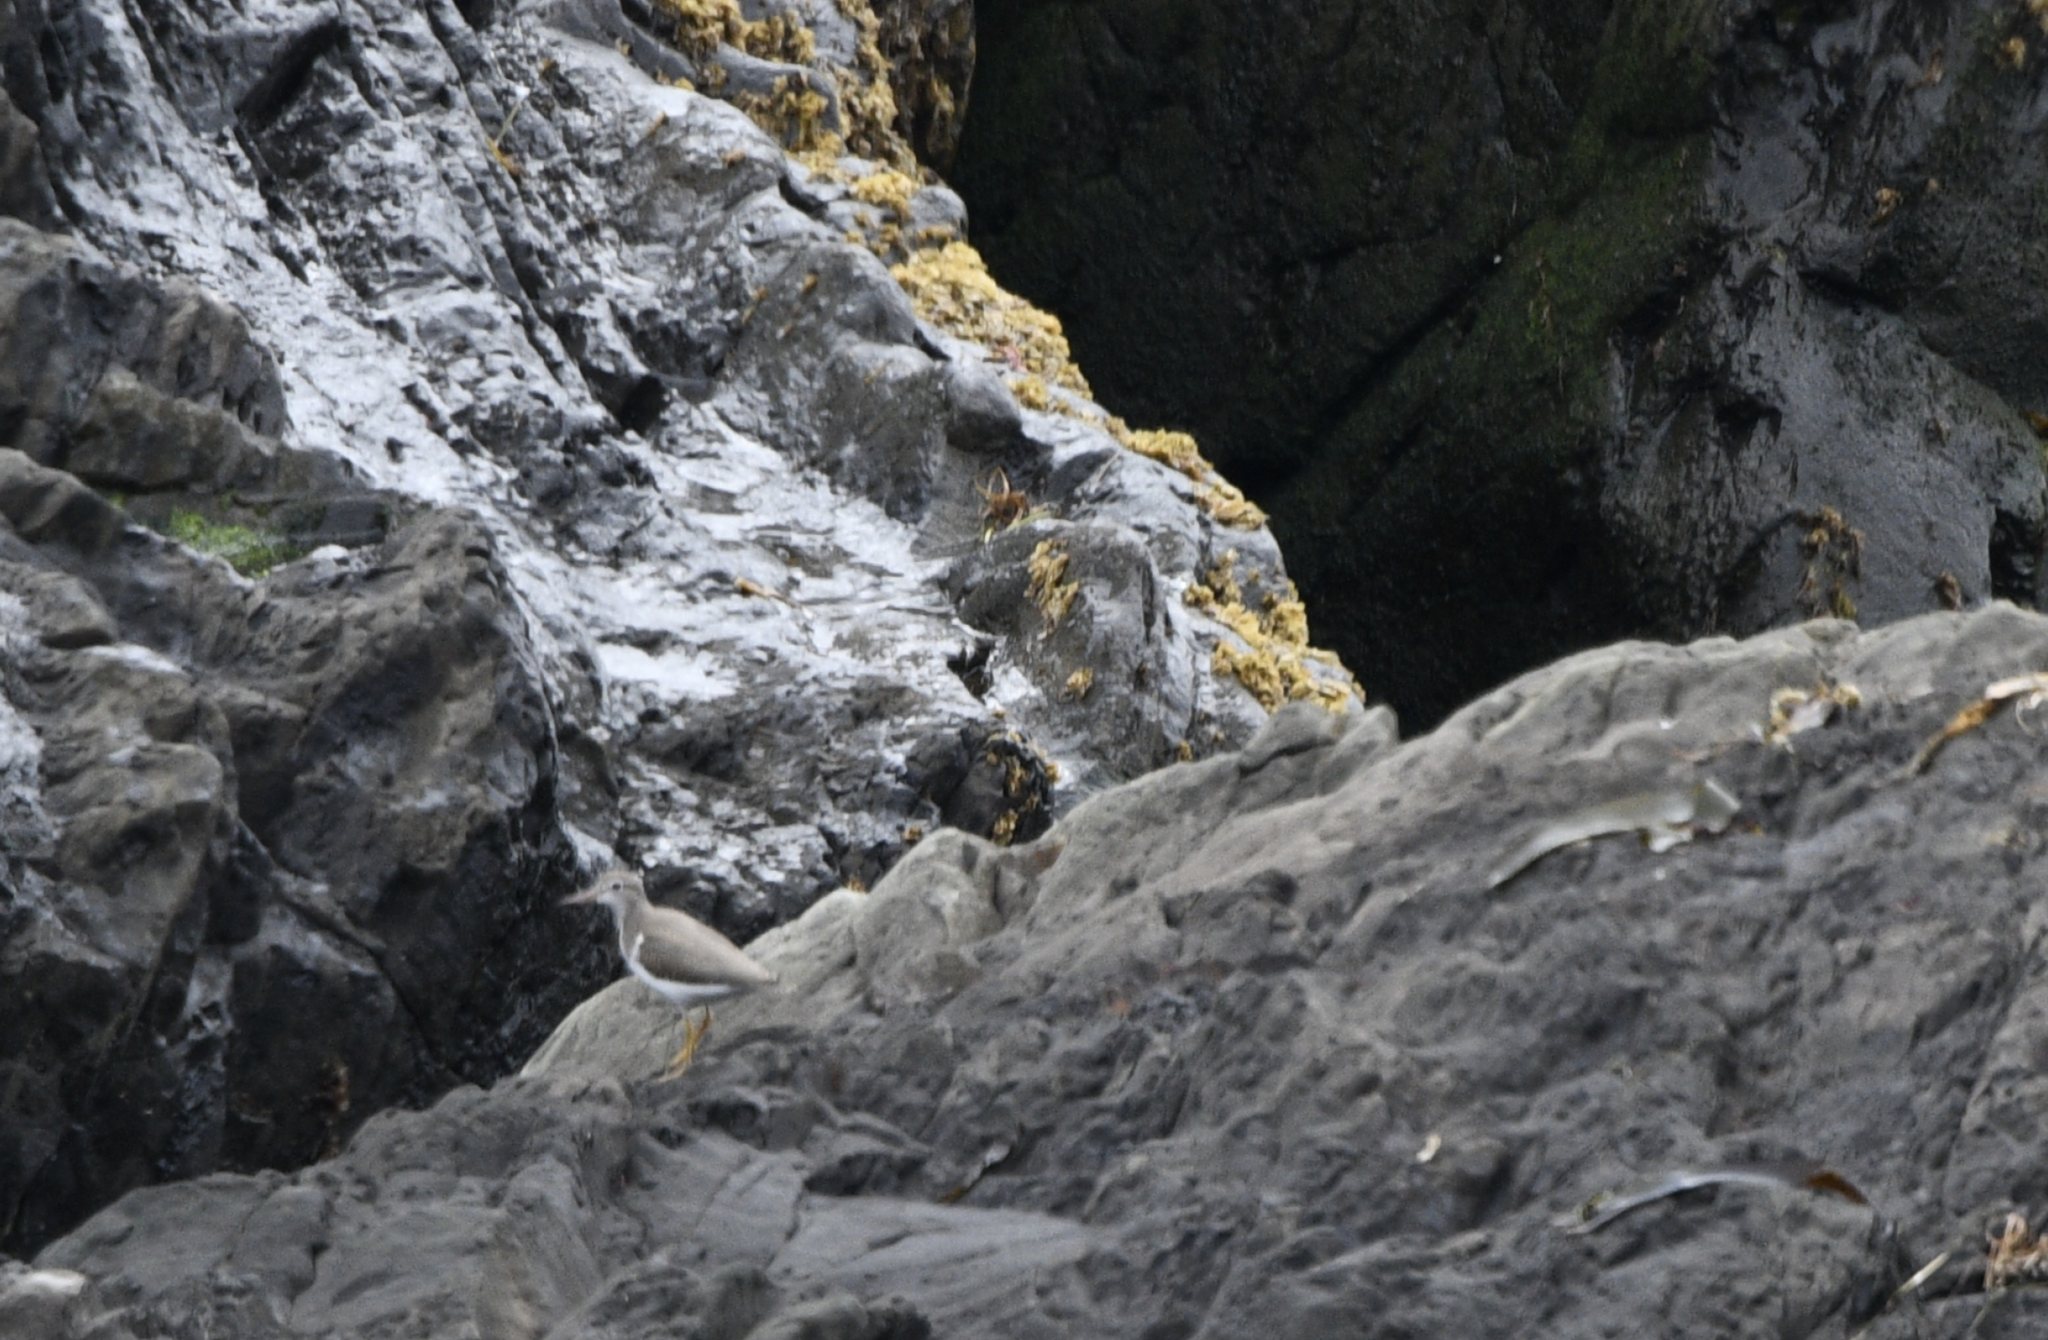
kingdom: Animalia
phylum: Chordata
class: Aves
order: Charadriiformes
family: Scolopacidae
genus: Actitis
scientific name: Actitis macularius
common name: Spotted sandpiper
